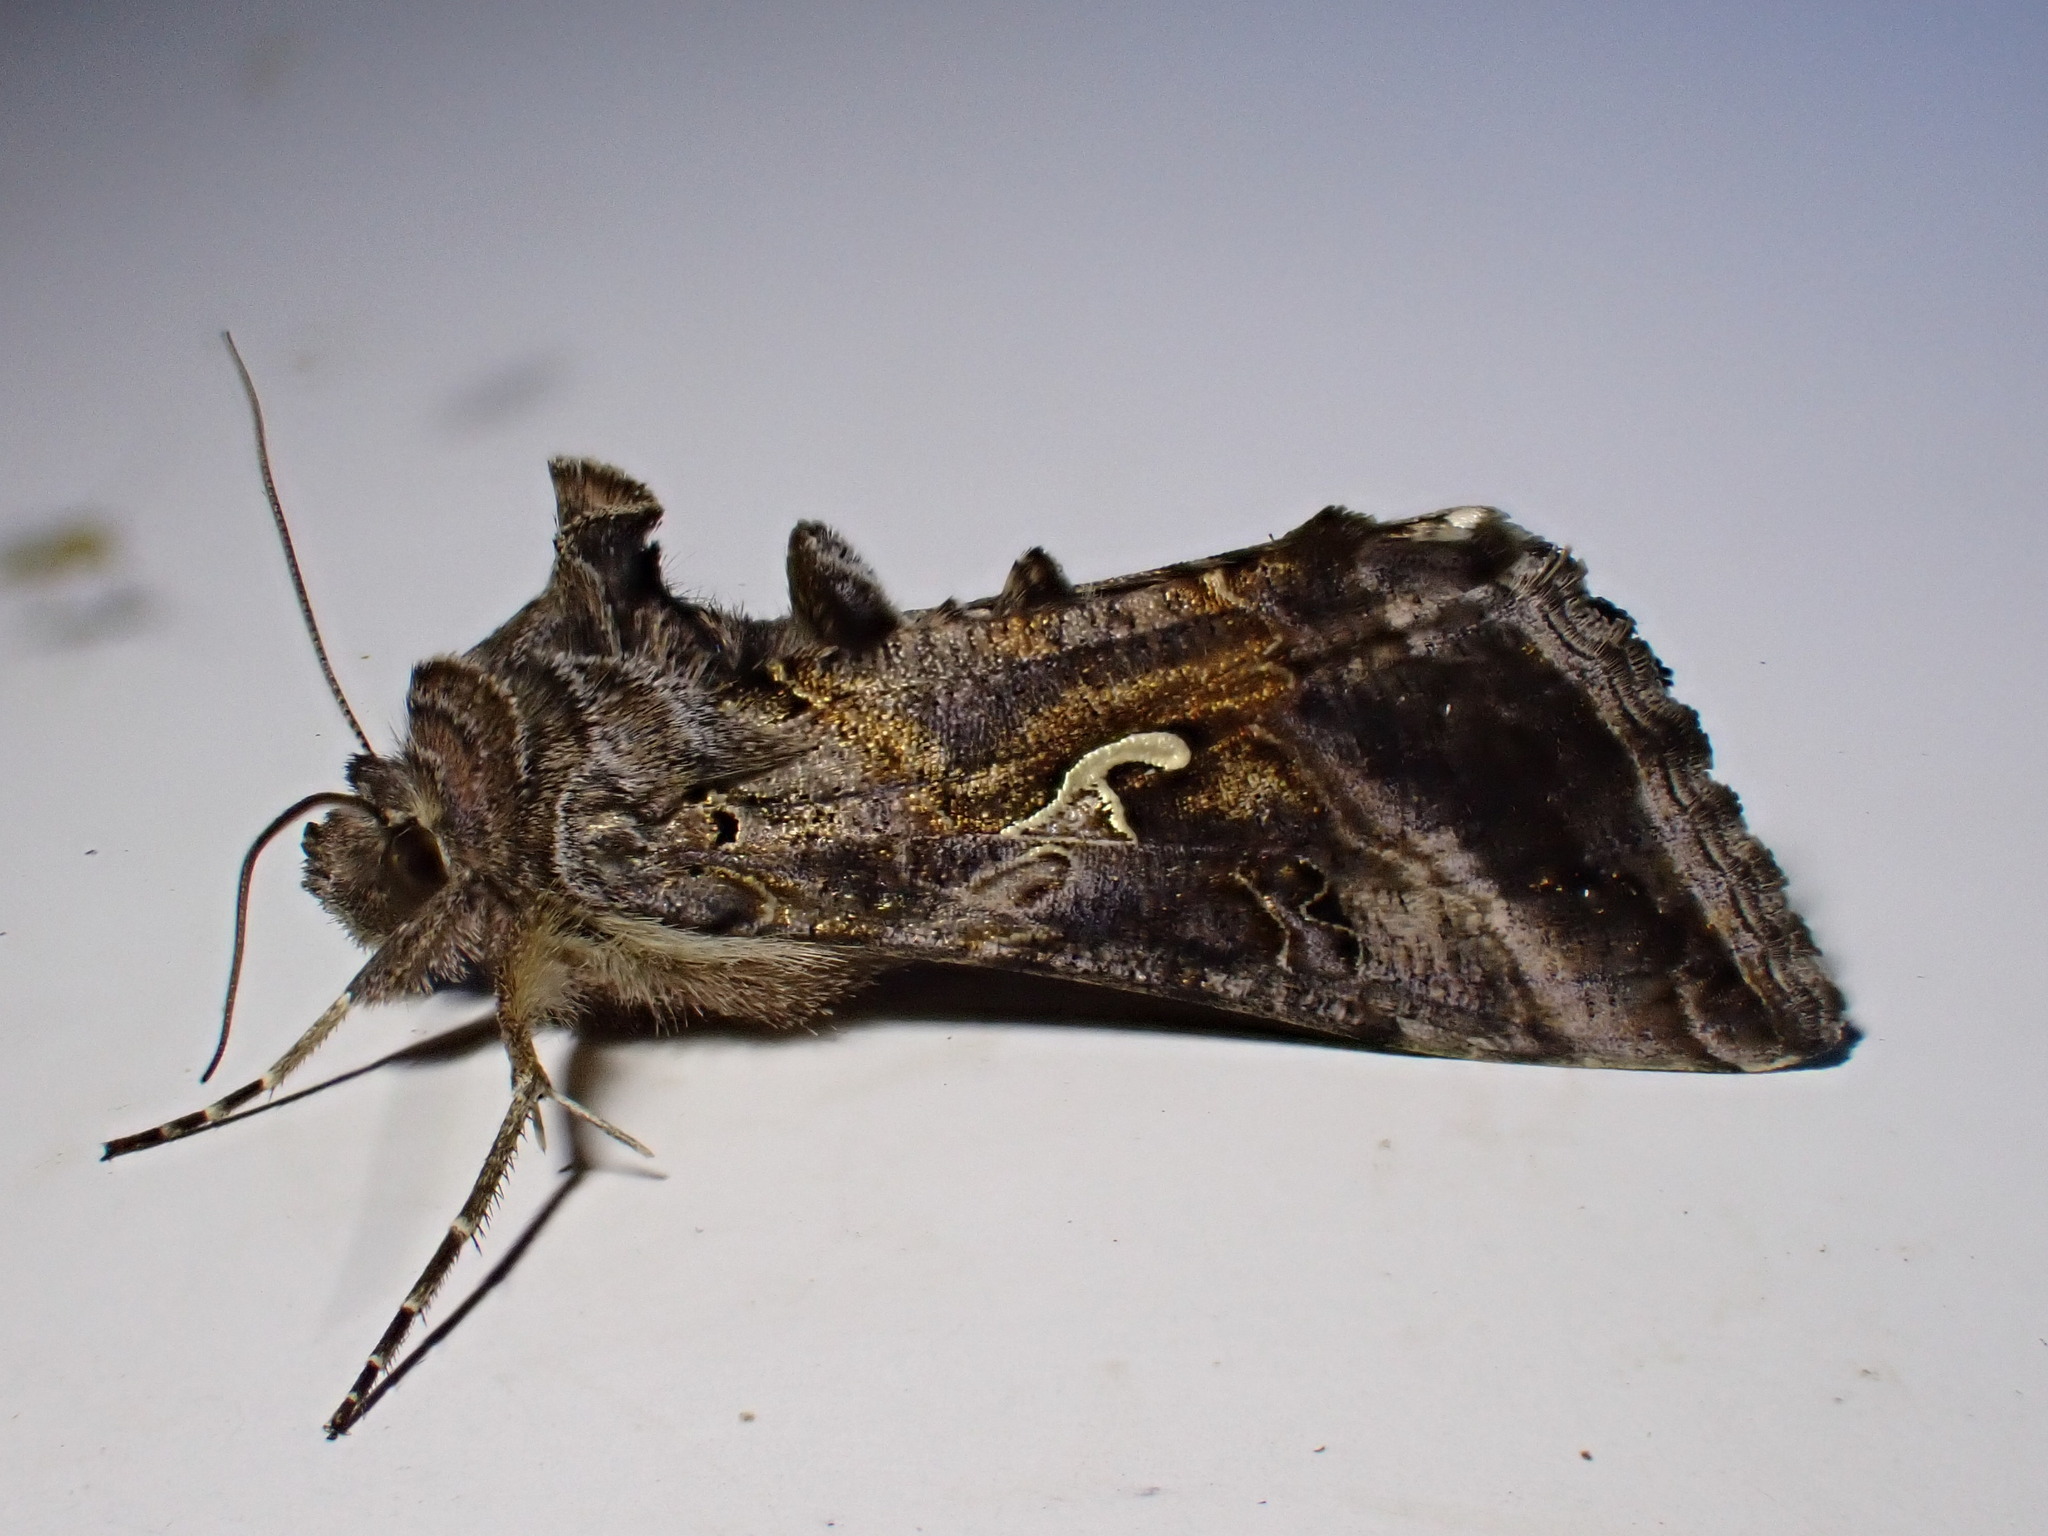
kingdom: Animalia
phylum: Arthropoda
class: Insecta
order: Lepidoptera
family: Noctuidae
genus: Autographa
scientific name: Autographa gamma
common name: Silver y
